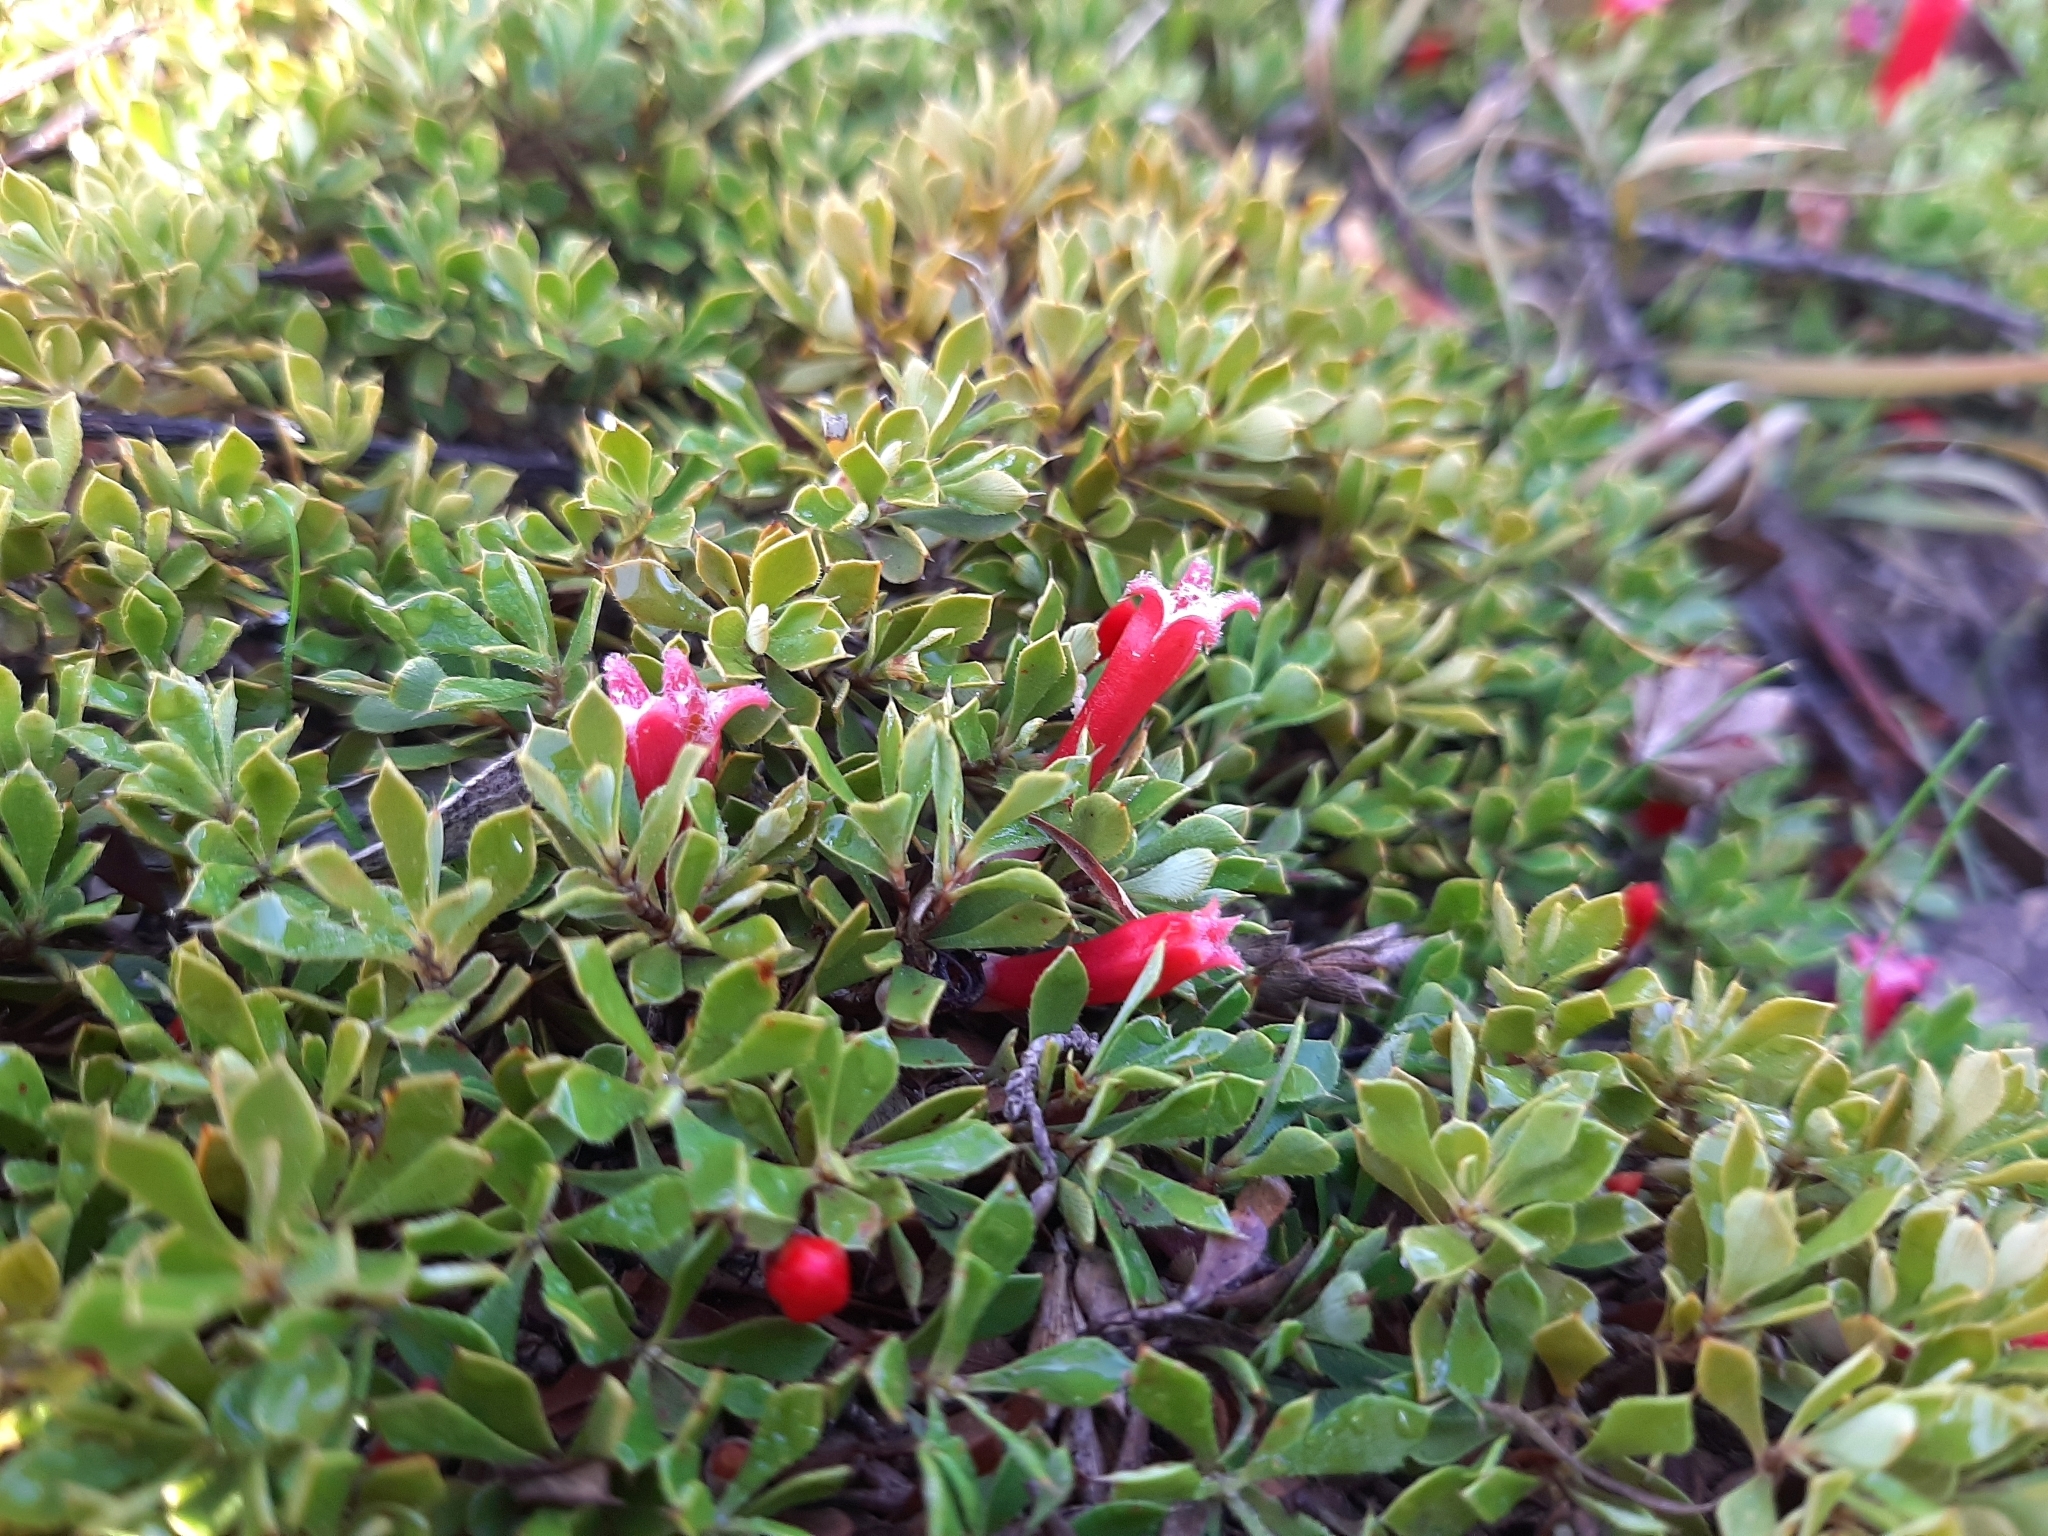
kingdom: Plantae
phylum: Tracheophyta
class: Magnoliopsida
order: Ericales
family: Ericaceae
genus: Styphelia
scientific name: Styphelia compacta
